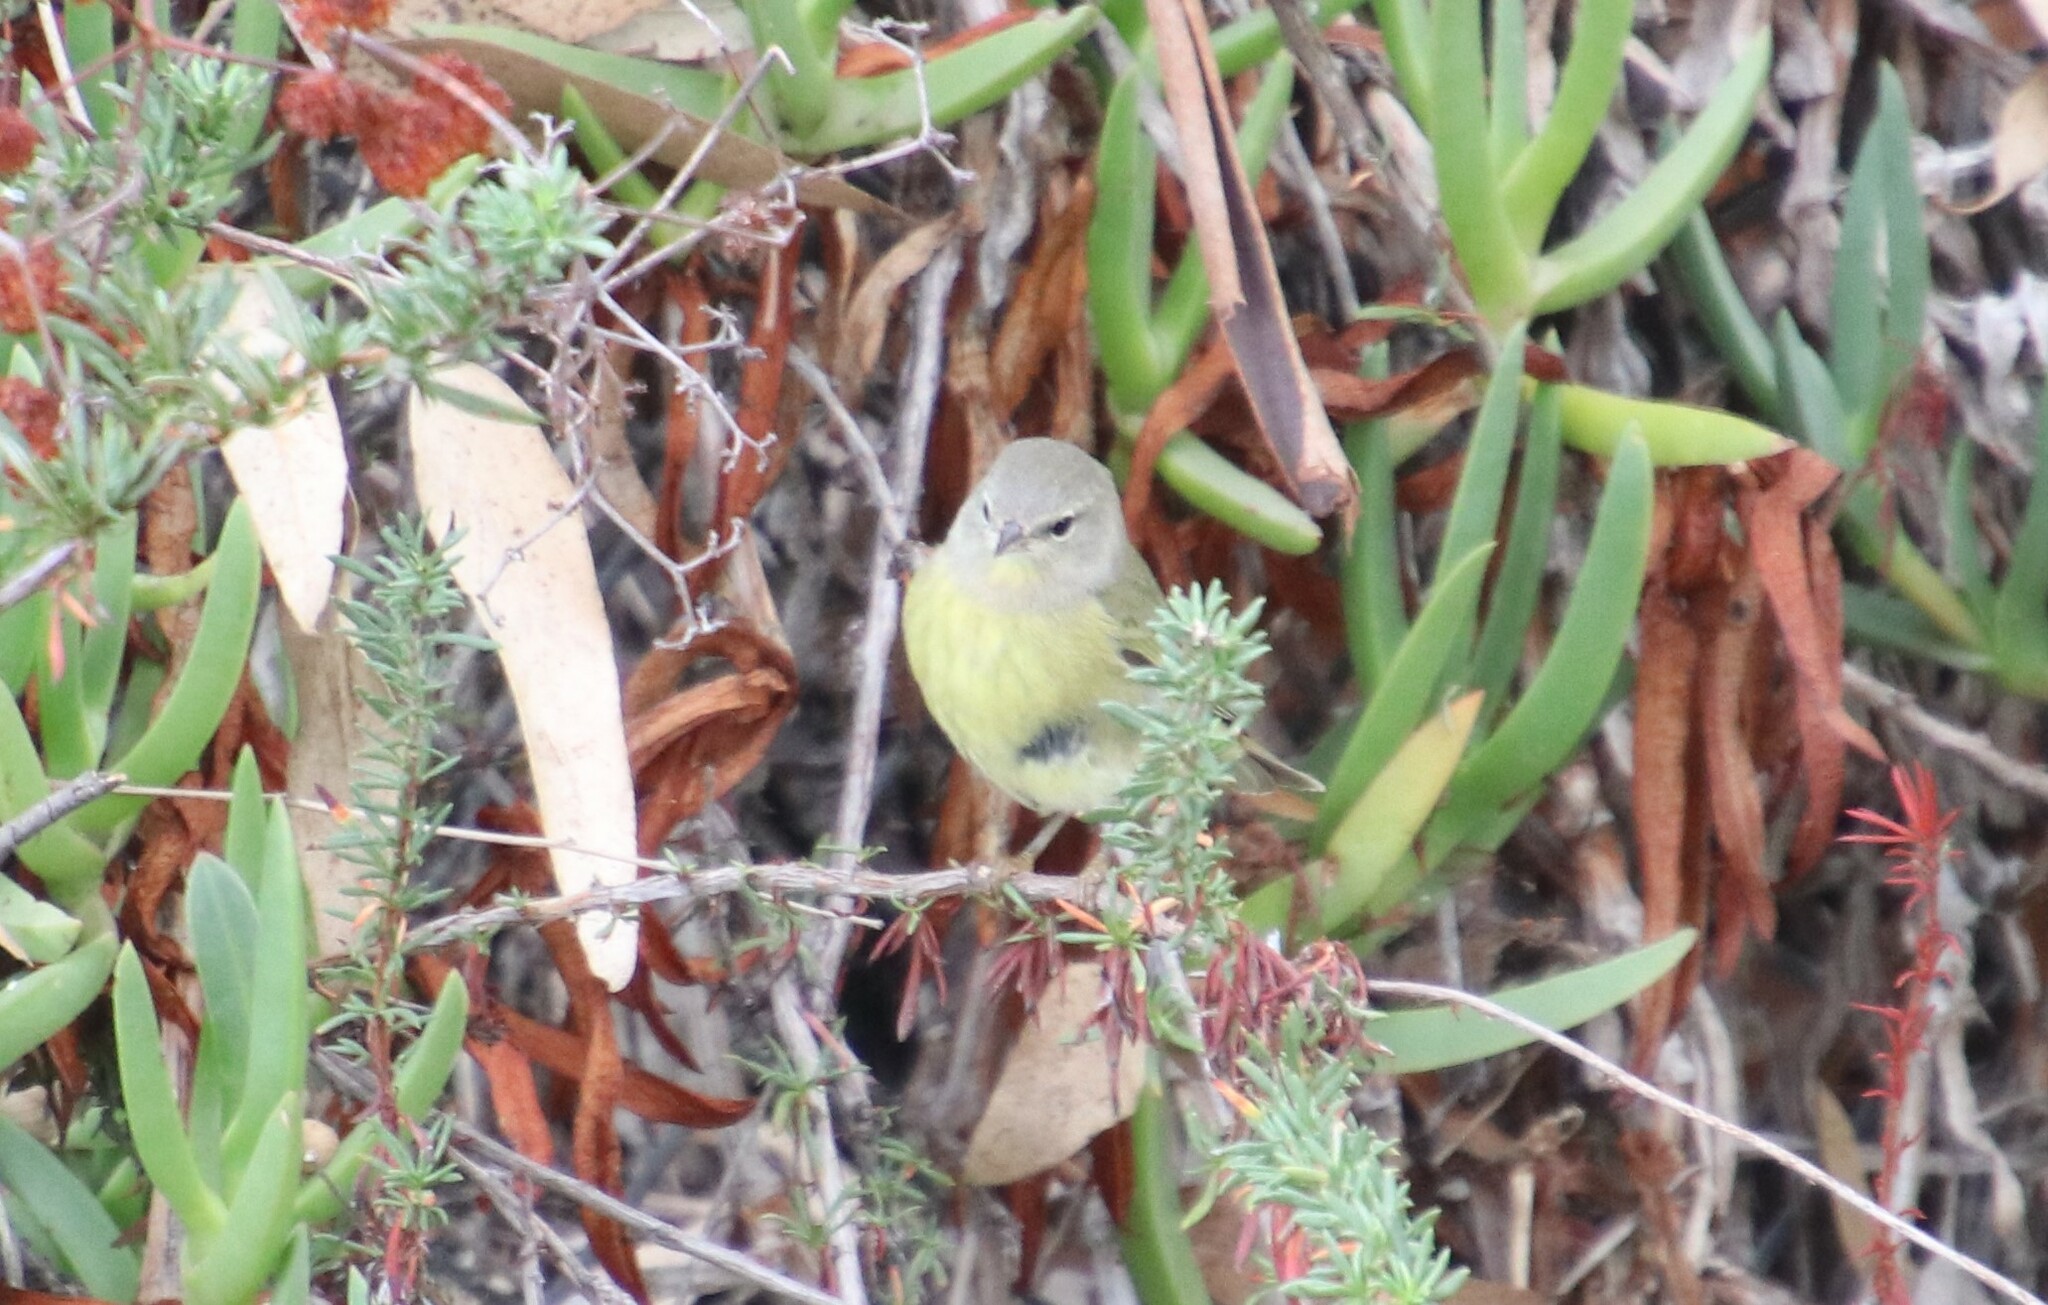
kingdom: Animalia
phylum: Chordata
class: Aves
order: Passeriformes
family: Parulidae
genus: Leiothlypis
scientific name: Leiothlypis celata
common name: Orange-crowned warbler
